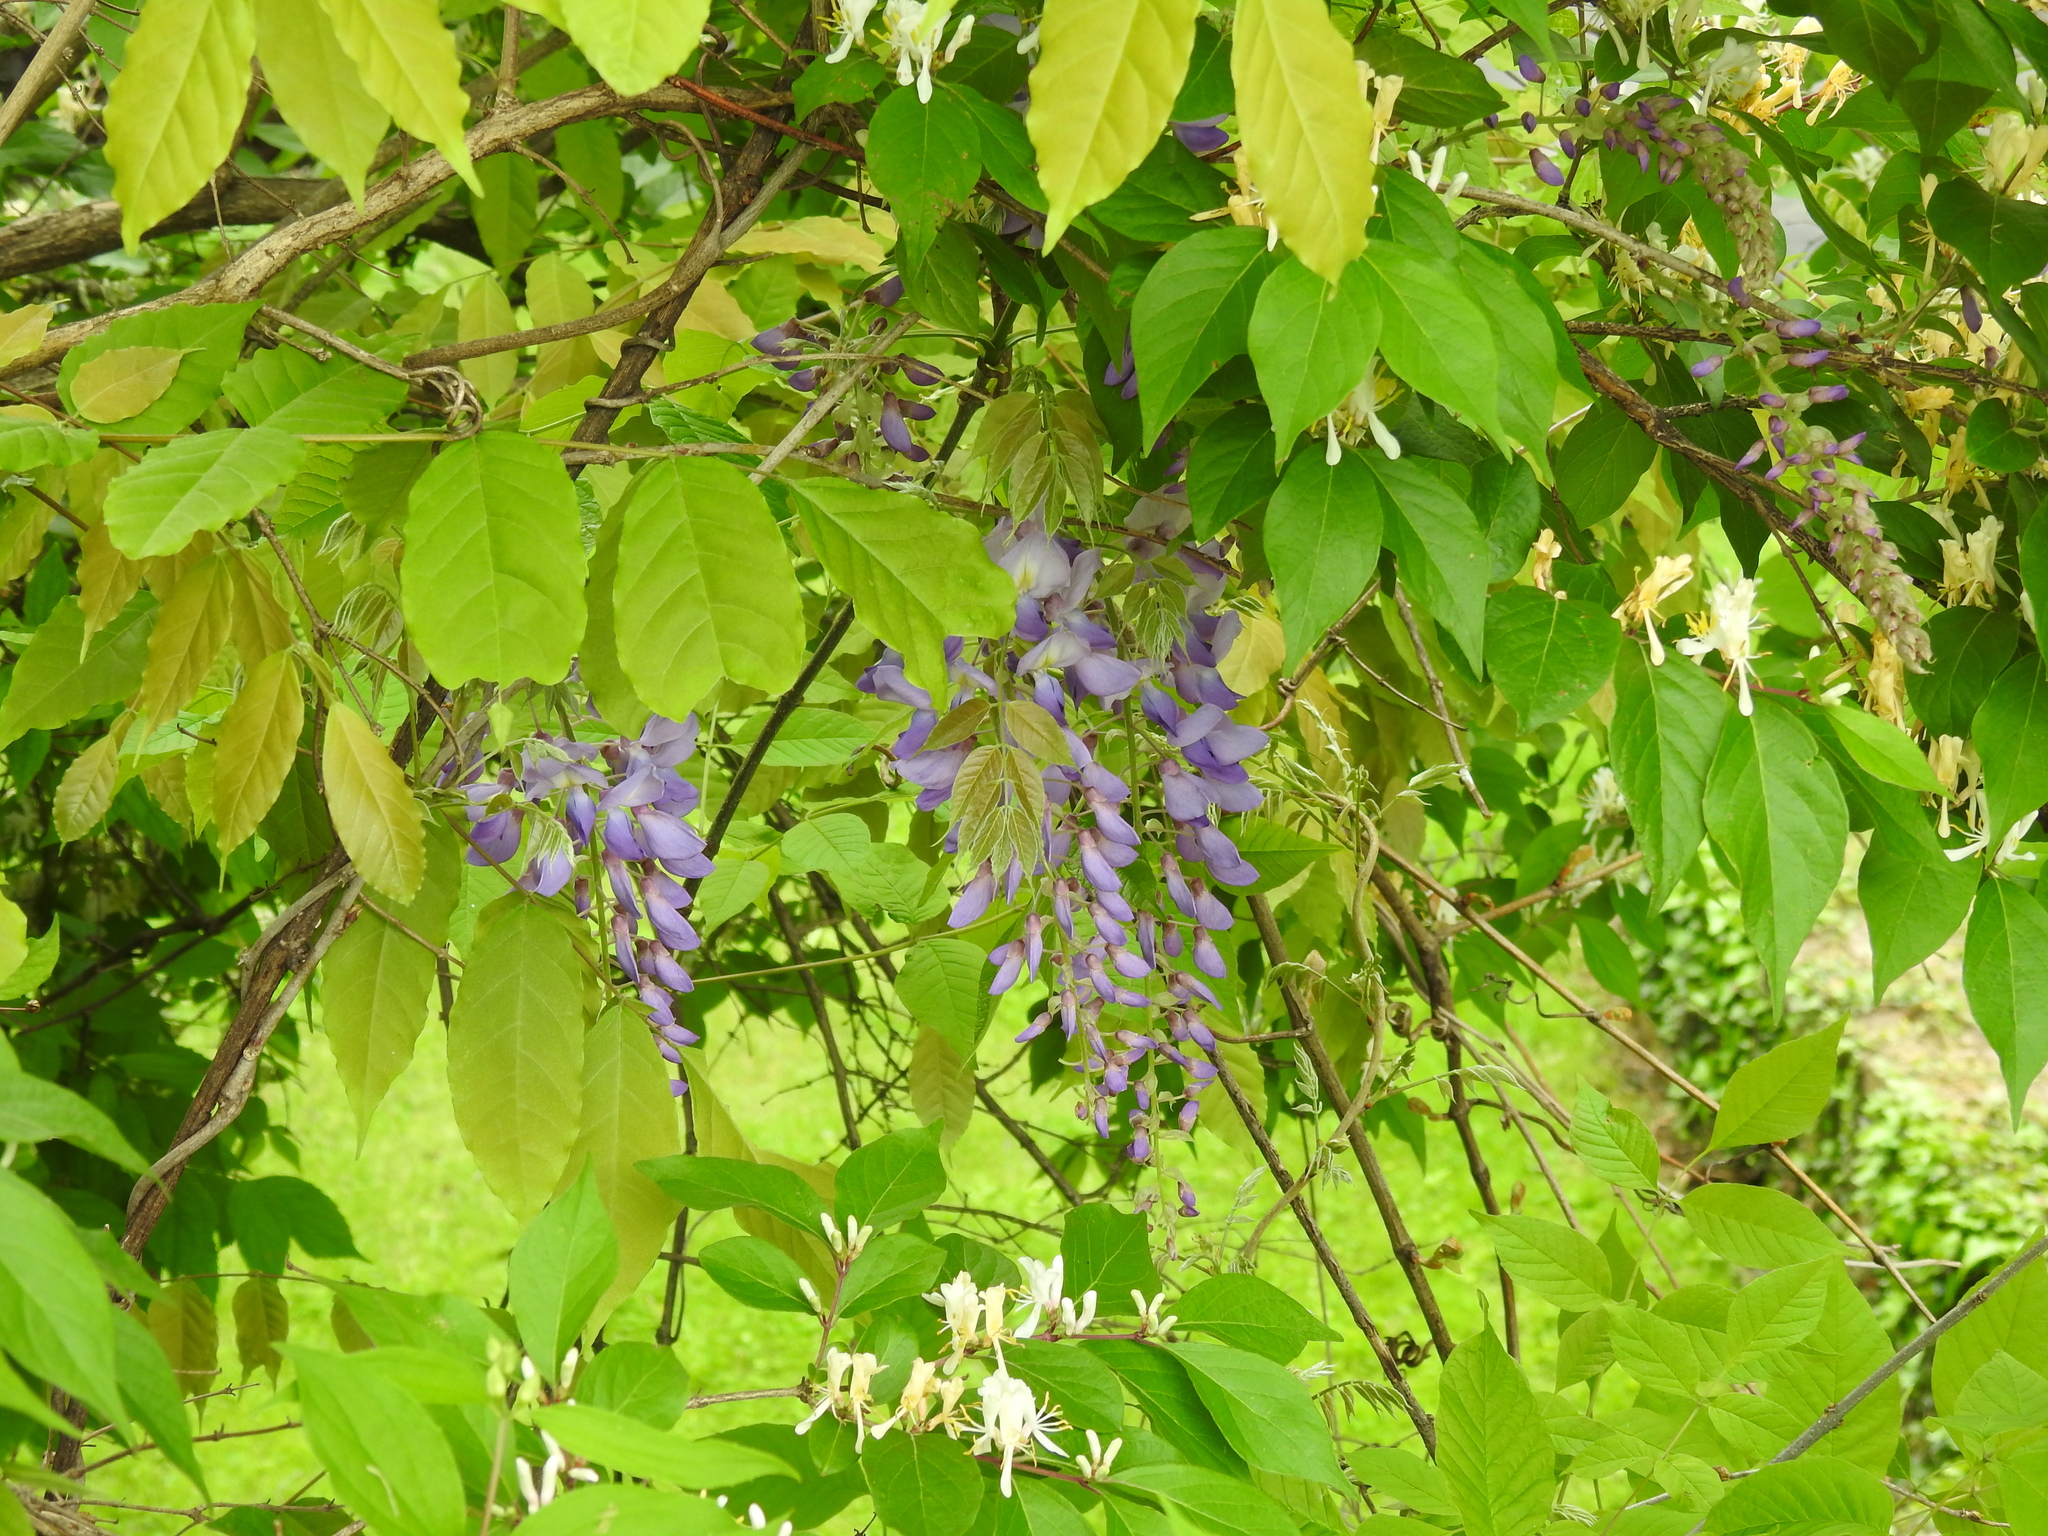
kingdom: Plantae
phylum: Tracheophyta
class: Magnoliopsida
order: Fabales
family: Fabaceae
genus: Wisteria
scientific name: Wisteria sinensis
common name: Chinese wisteria
